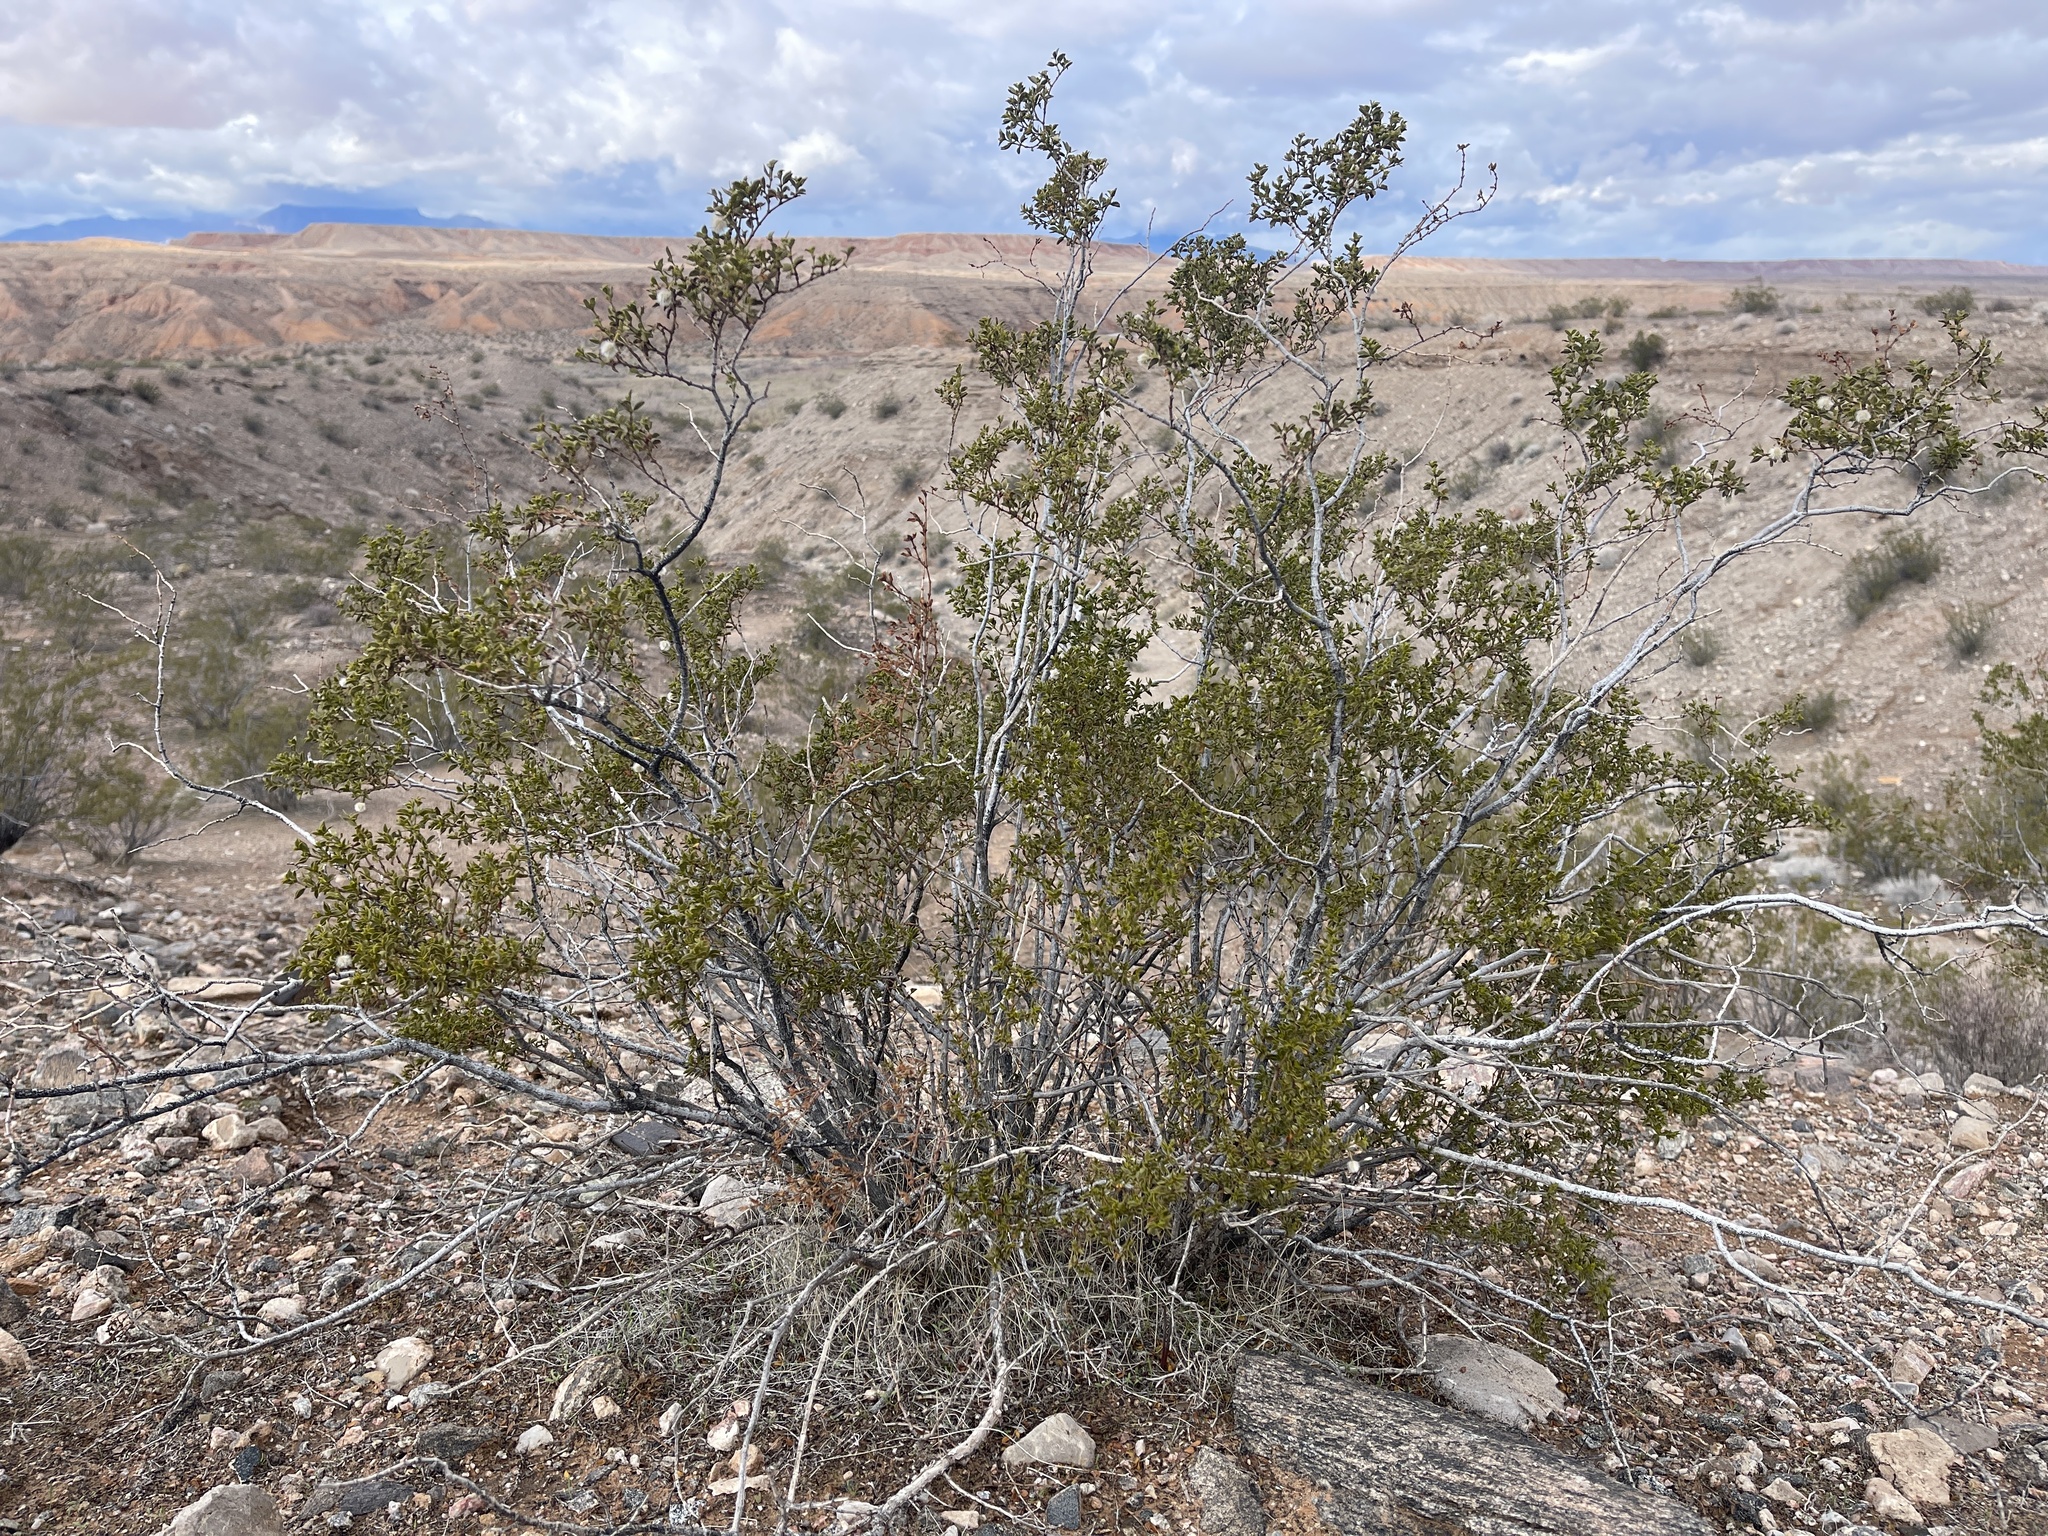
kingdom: Plantae
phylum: Tracheophyta
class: Magnoliopsida
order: Zygophyllales
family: Zygophyllaceae
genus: Larrea
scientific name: Larrea tridentata
